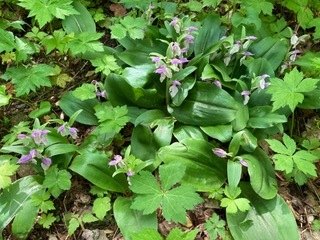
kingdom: Plantae
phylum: Tracheophyta
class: Liliopsida
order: Asparagales
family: Orchidaceae
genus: Galearis
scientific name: Galearis spectabilis
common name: Purple-hooded orchis
